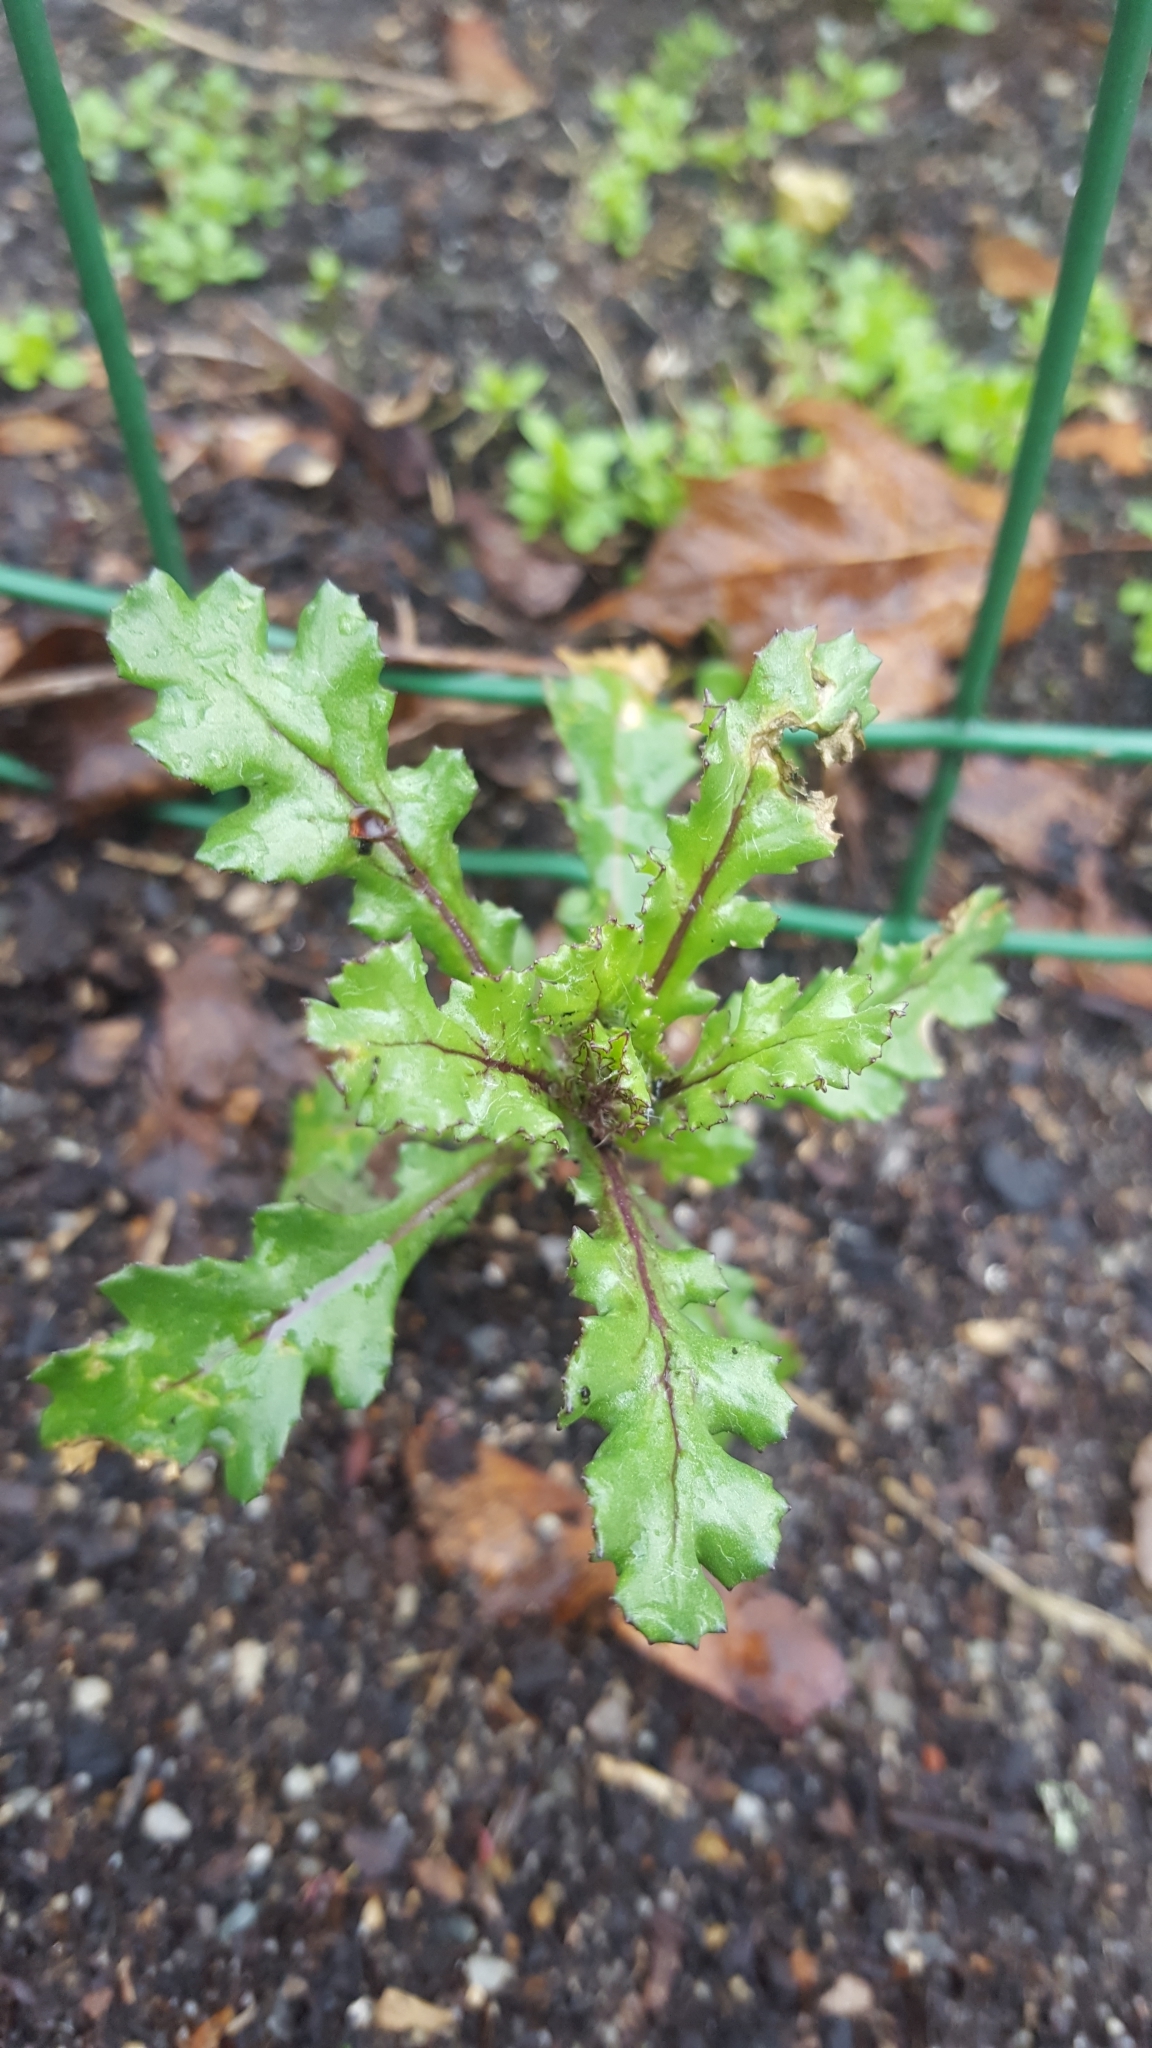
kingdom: Plantae
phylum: Tracheophyta
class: Magnoliopsida
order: Asterales
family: Asteraceae
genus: Senecio
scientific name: Senecio vulgaris
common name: Old-man-in-the-spring
